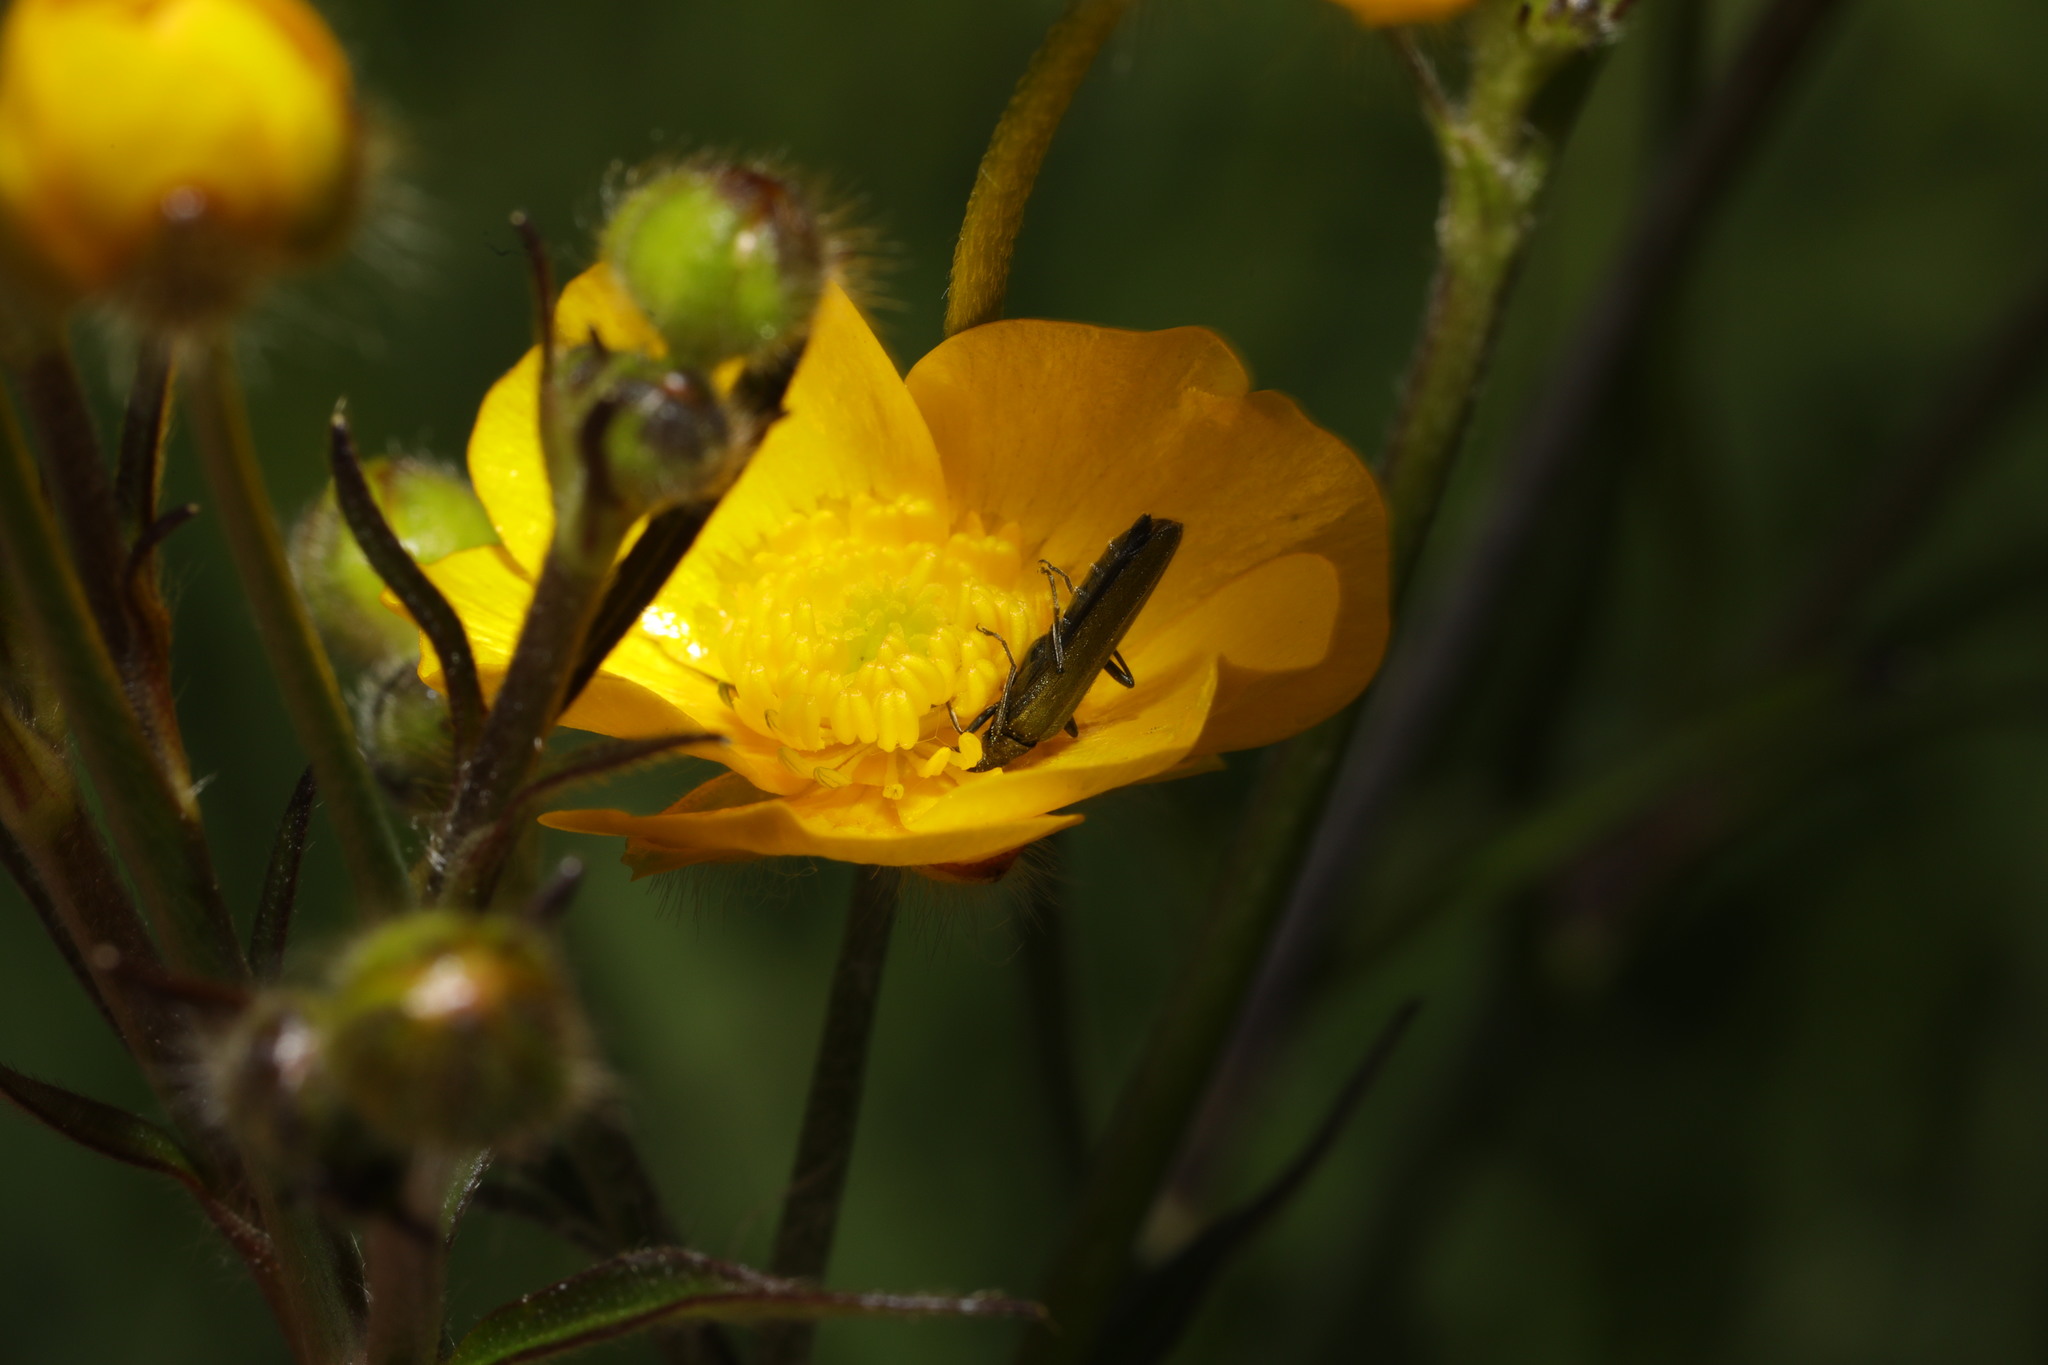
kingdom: Animalia
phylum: Arthropoda
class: Insecta
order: Coleoptera
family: Oedemeridae
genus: Oedemera
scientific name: Oedemera lurida
